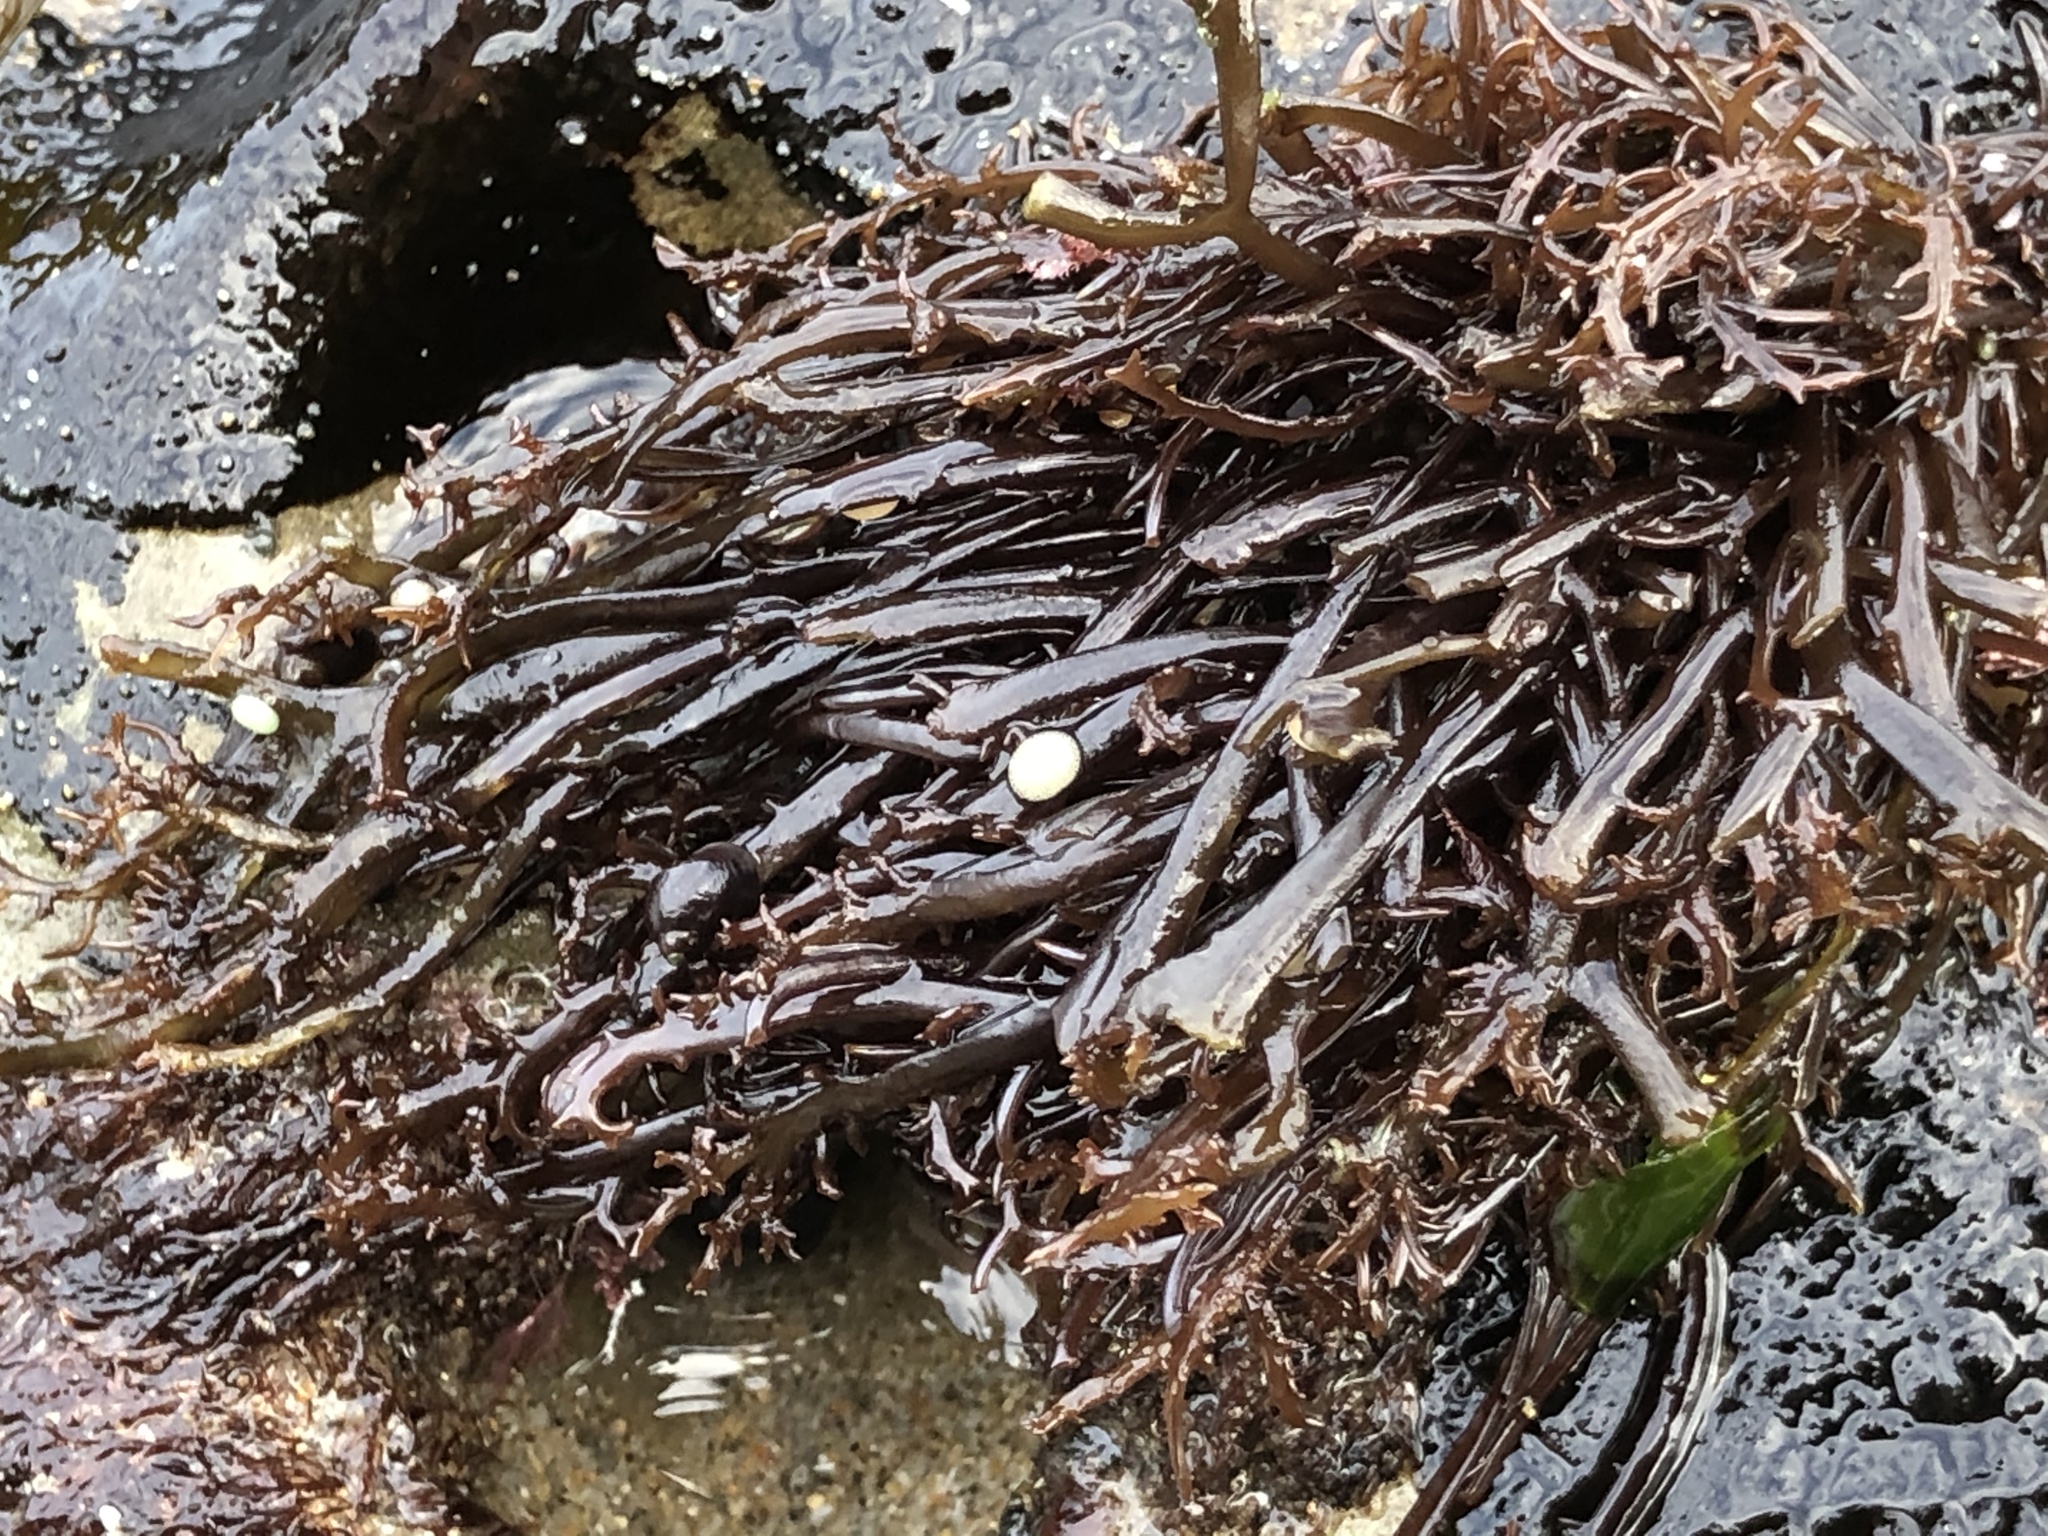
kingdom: Plantae
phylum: Rhodophyta
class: Florideophyceae
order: Gigartinales
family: Gigartinaceae
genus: Chondracanthus
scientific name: Chondracanthus canaliculatus
